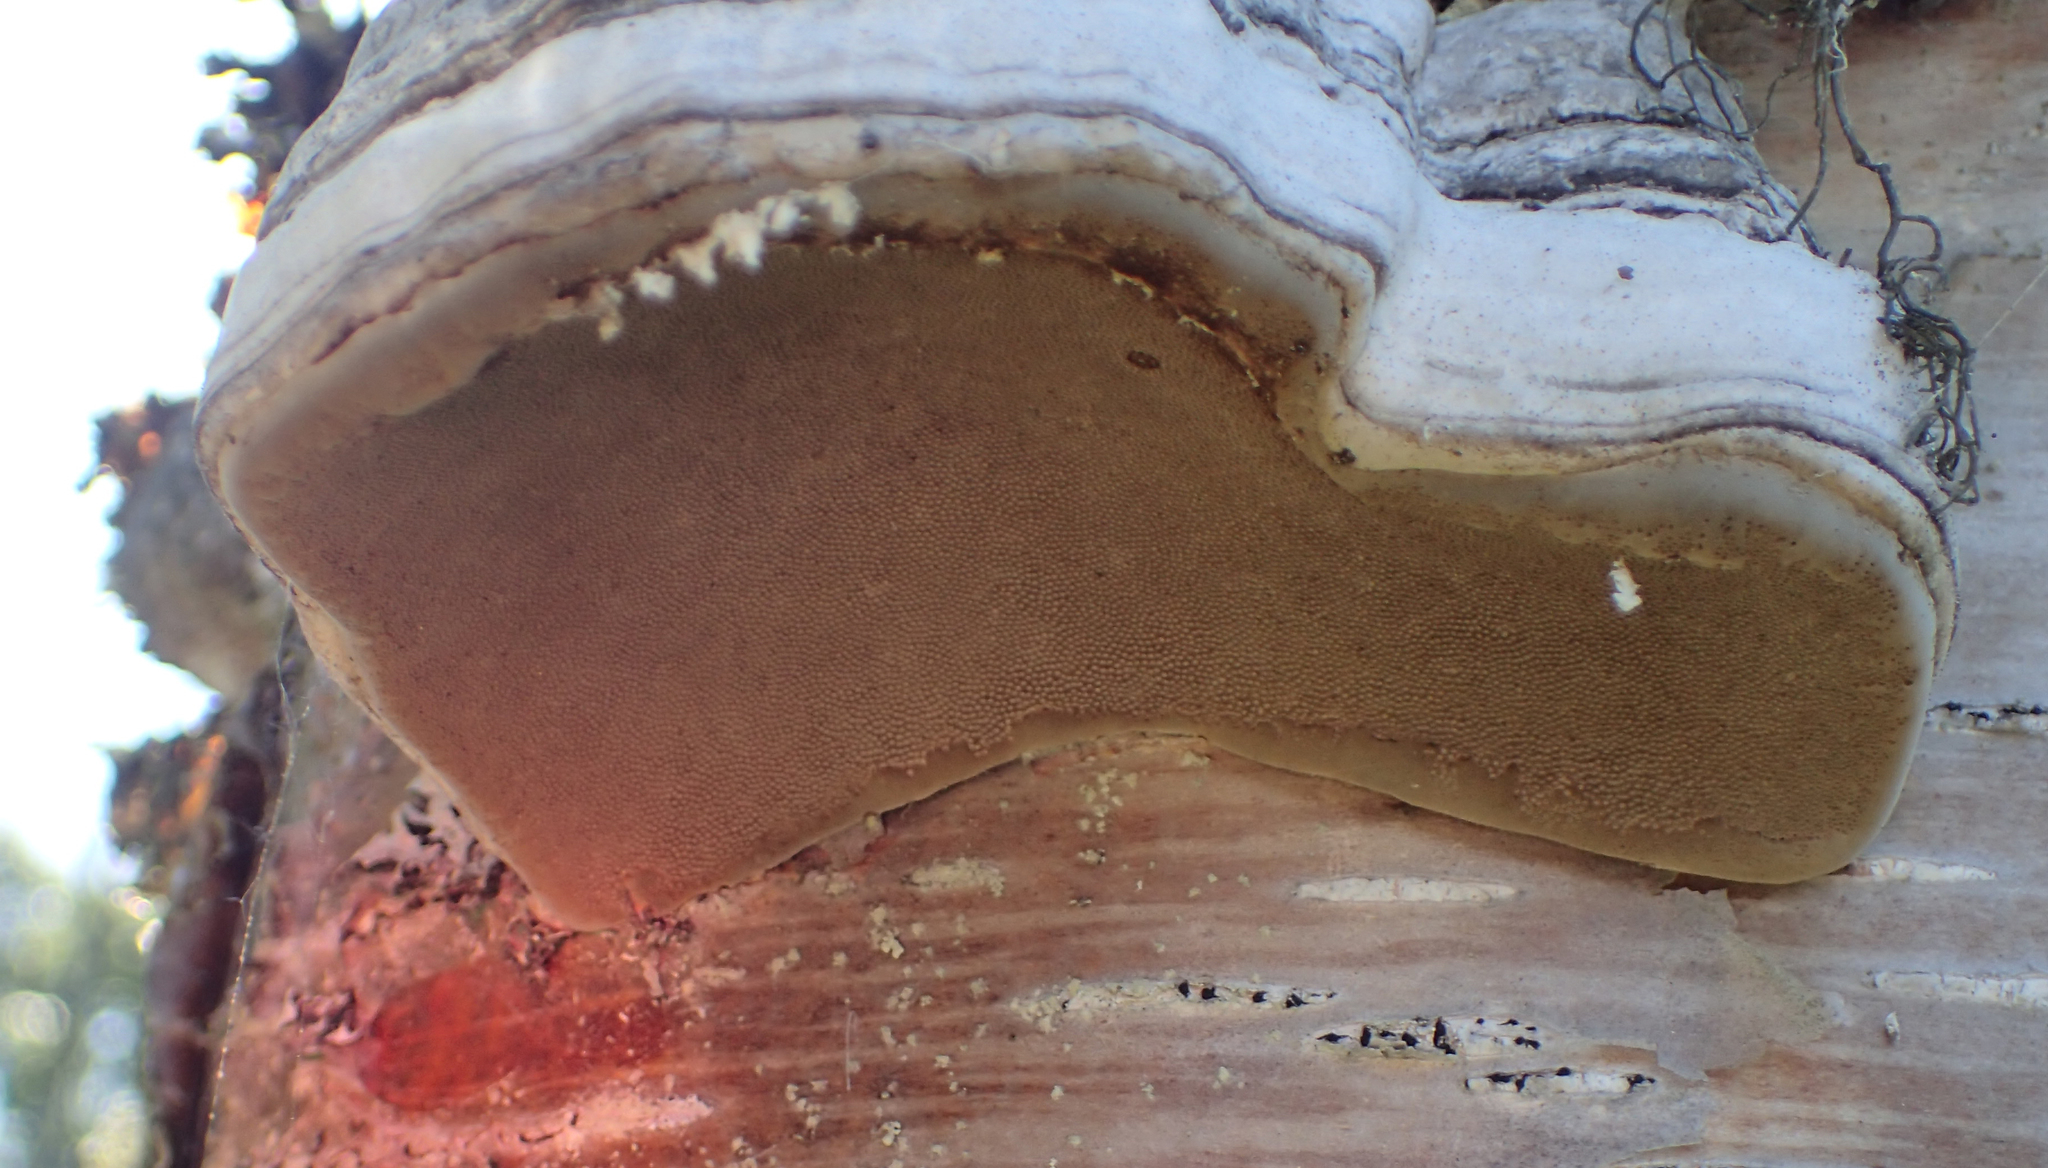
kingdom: Fungi
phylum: Basidiomycota
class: Agaricomycetes
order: Polyporales
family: Polyporaceae
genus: Fomes
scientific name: Fomes fomentarius
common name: Hoof fungus
